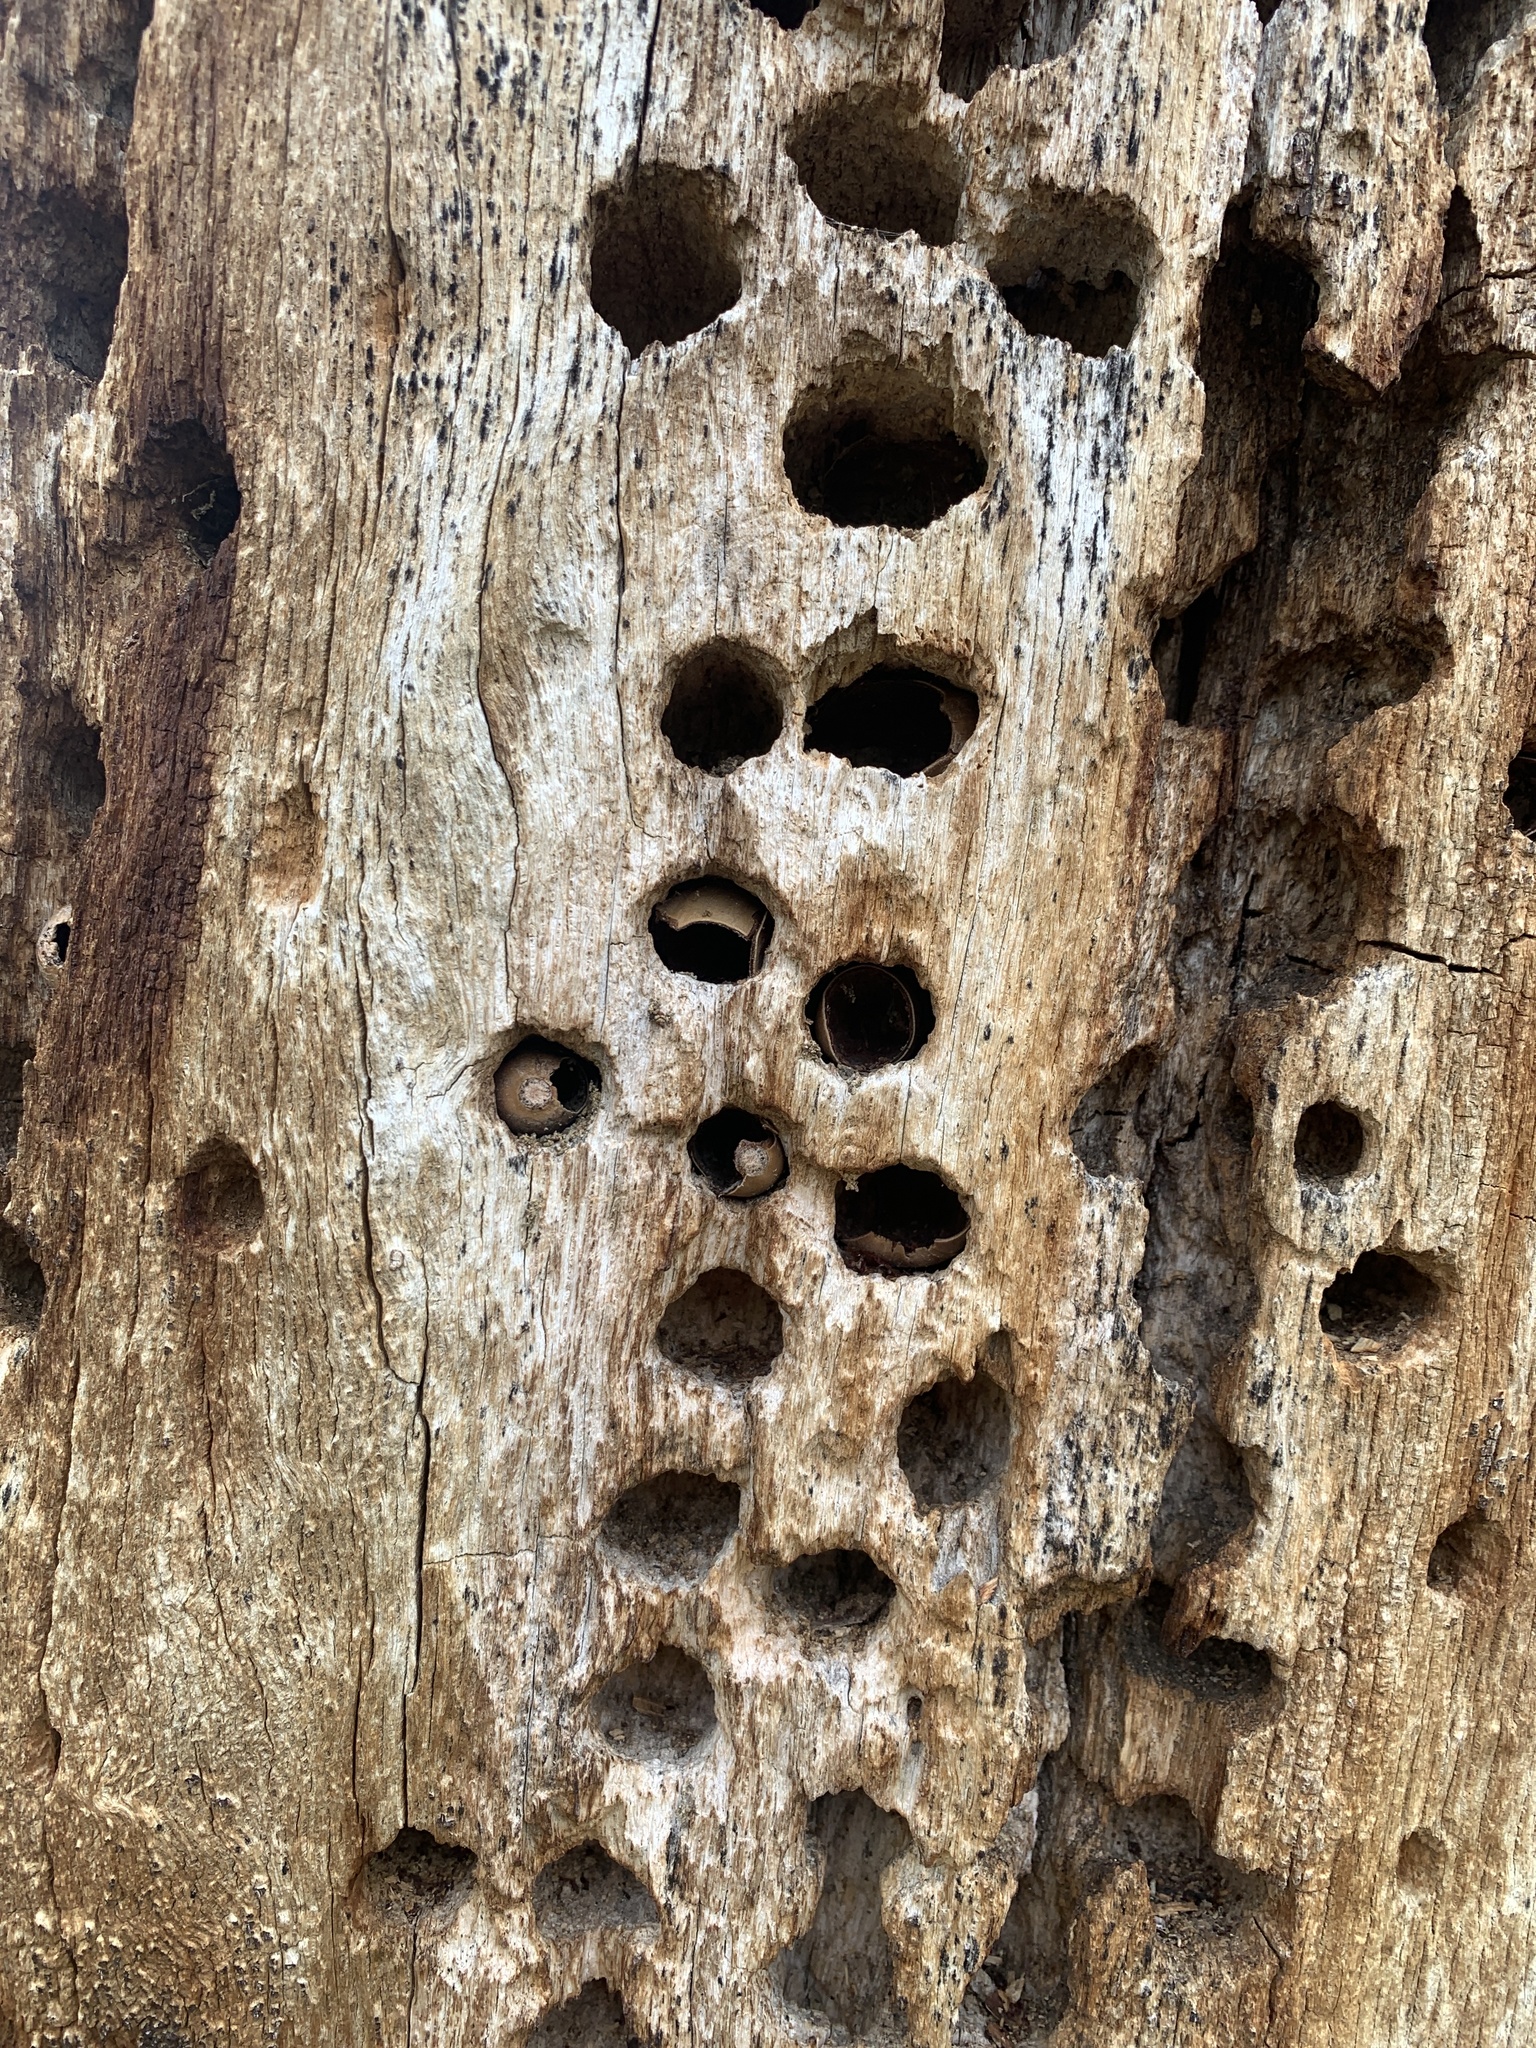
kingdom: Animalia
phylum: Chordata
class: Aves
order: Piciformes
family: Picidae
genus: Melanerpes
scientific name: Melanerpes formicivorus
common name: Acorn woodpecker
